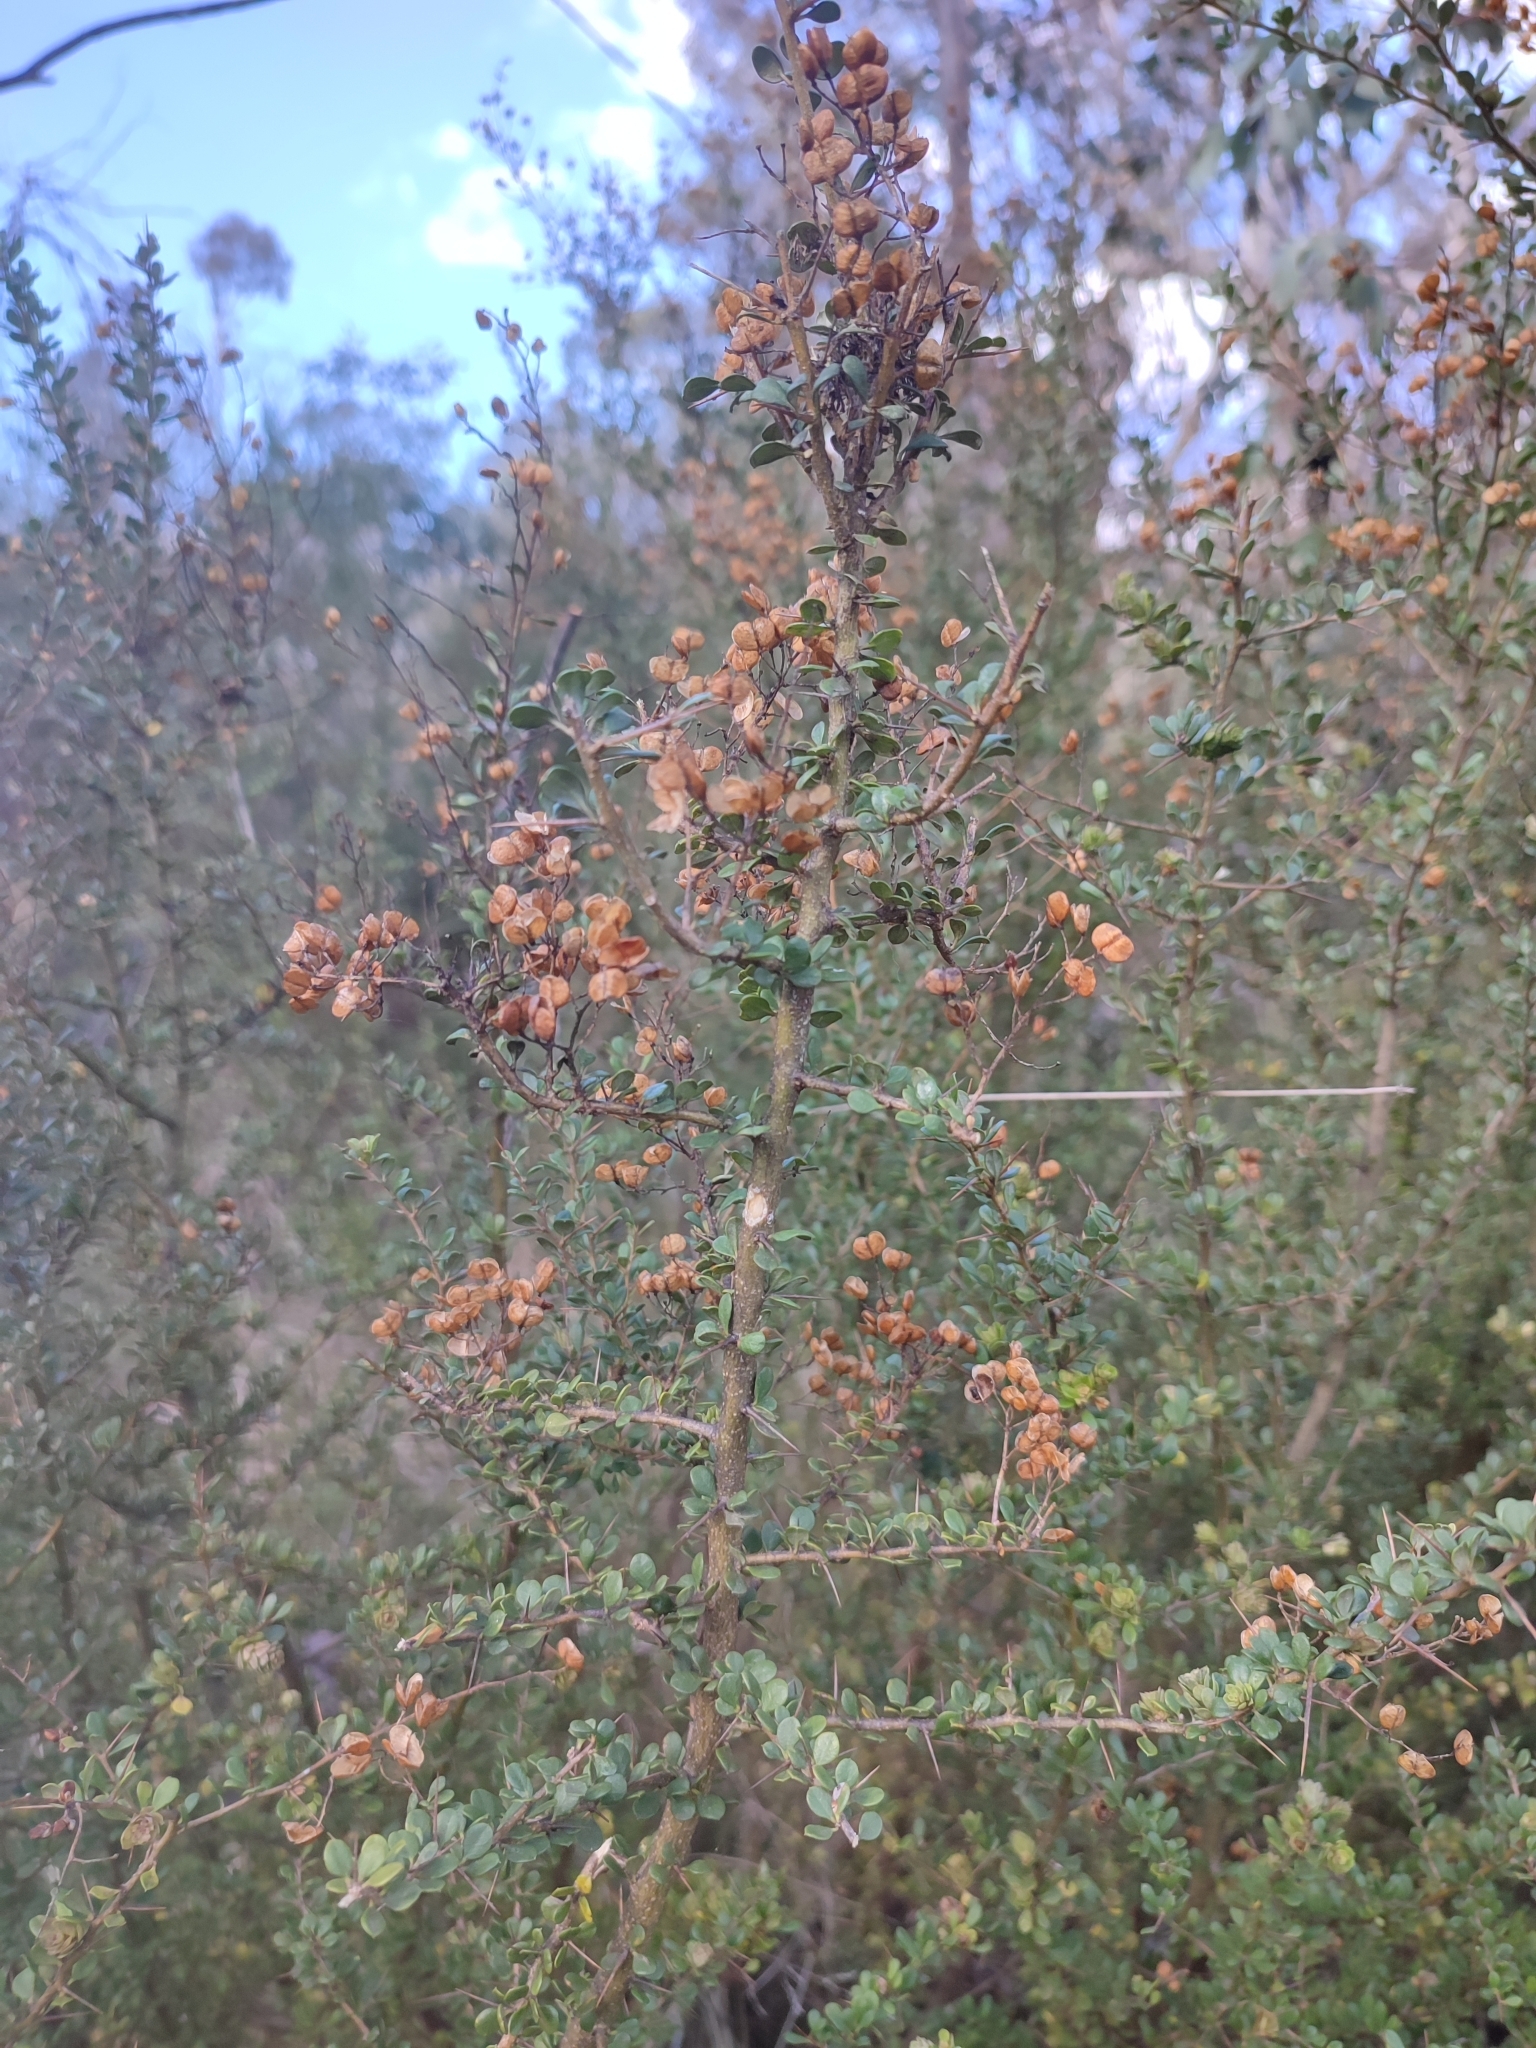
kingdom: Plantae
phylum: Tracheophyta
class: Magnoliopsida
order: Apiales
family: Pittosporaceae
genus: Bursaria
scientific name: Bursaria spinosa
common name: Australian blackthorn
